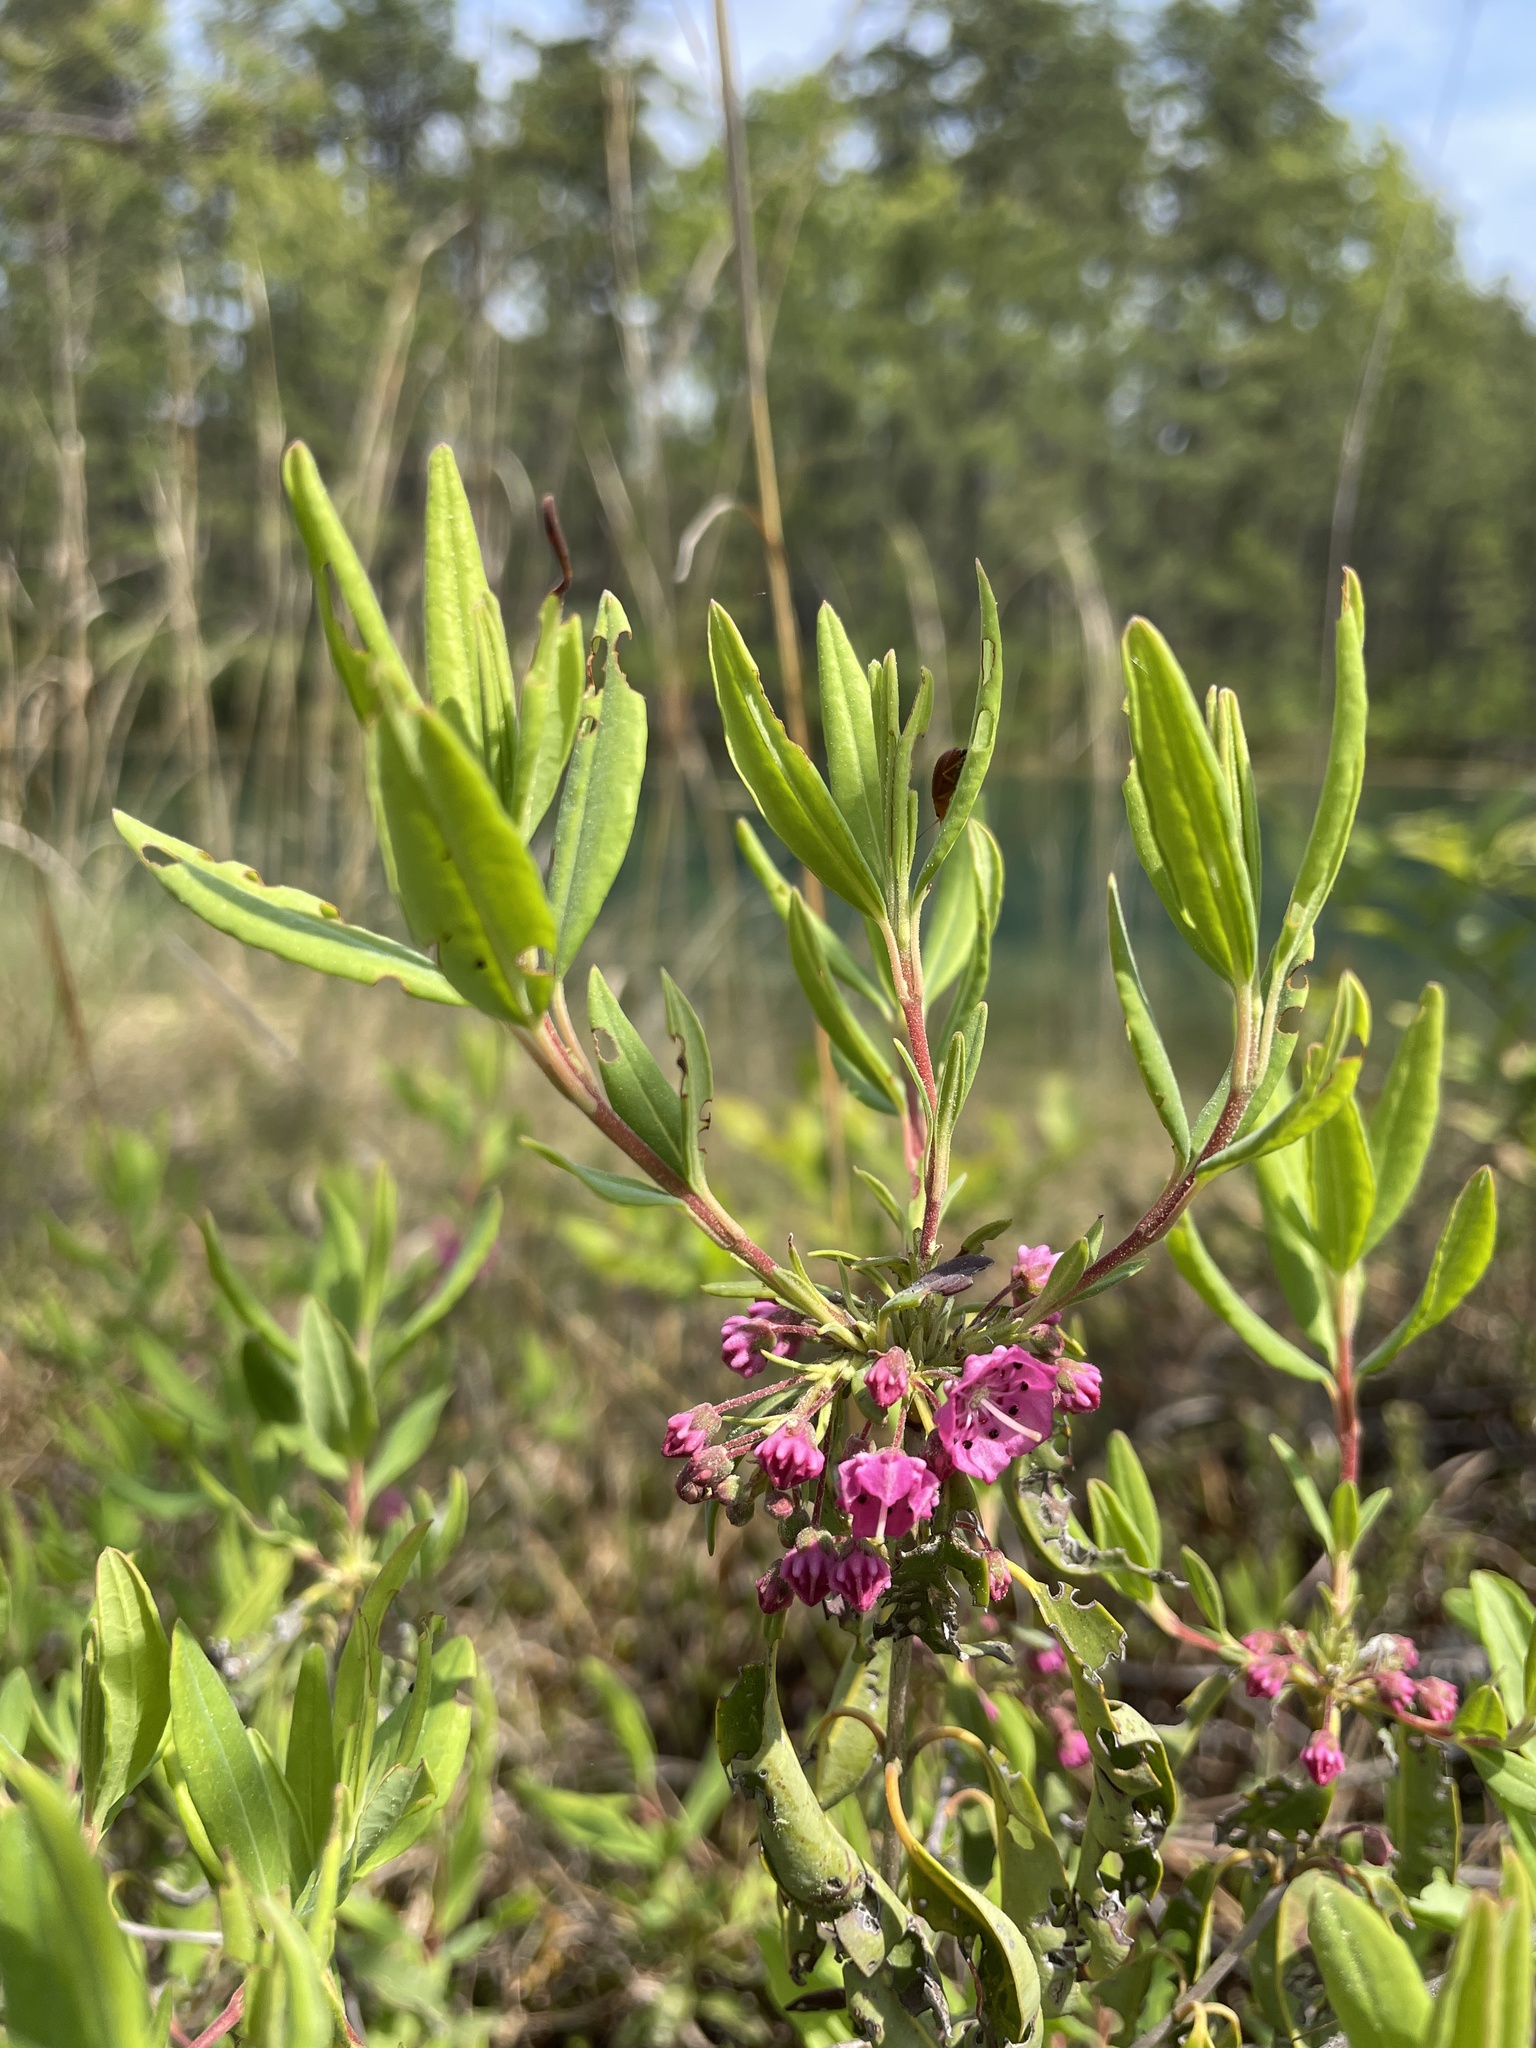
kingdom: Plantae
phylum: Tracheophyta
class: Magnoliopsida
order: Ericales
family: Ericaceae
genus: Kalmia
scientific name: Kalmia angustifolia
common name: Sheep-laurel
